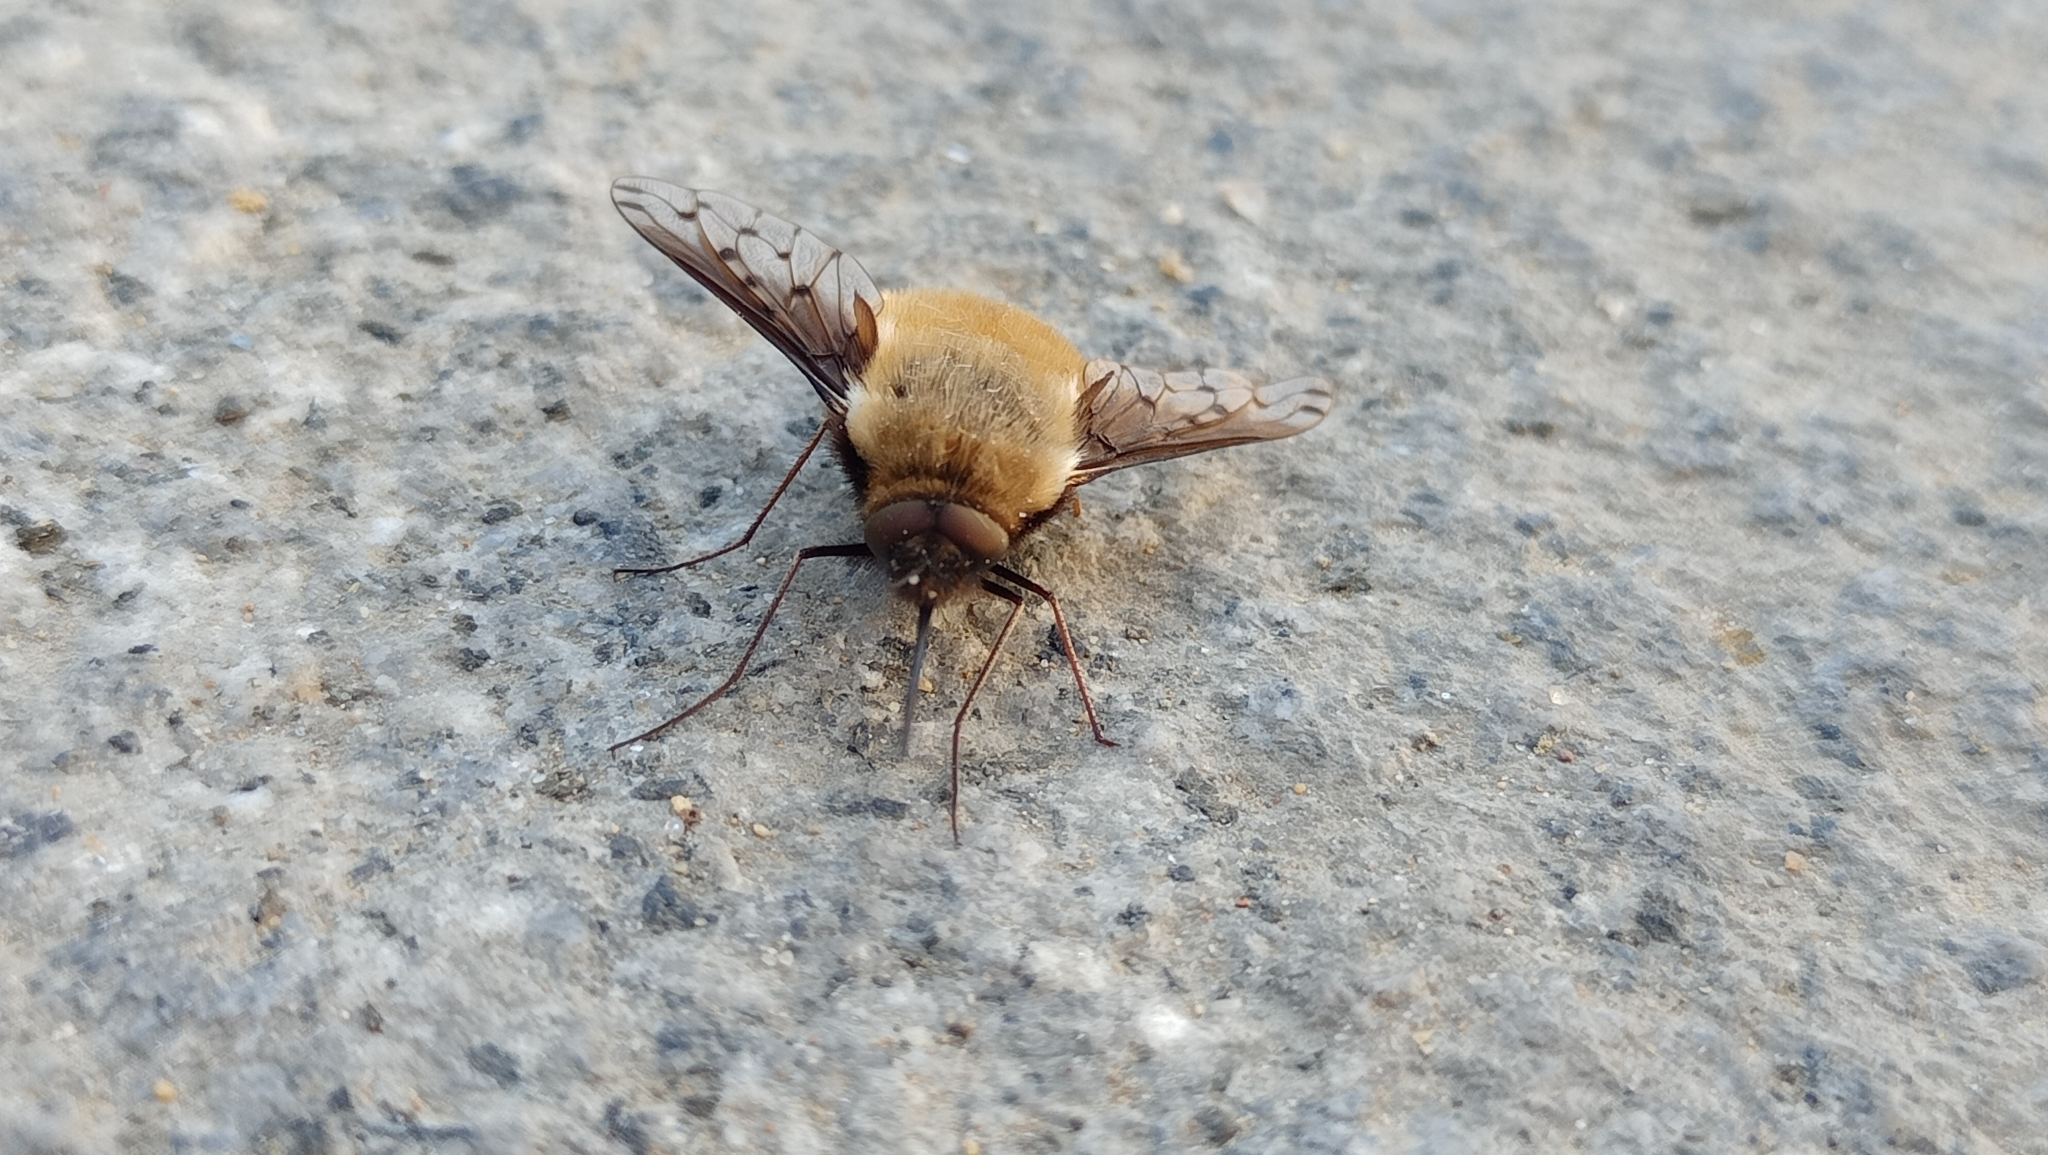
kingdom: Animalia
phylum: Arthropoda
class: Insecta
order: Diptera
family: Bombyliidae
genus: Bombylius
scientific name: Bombylius discolor
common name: Dotted bee-fly
